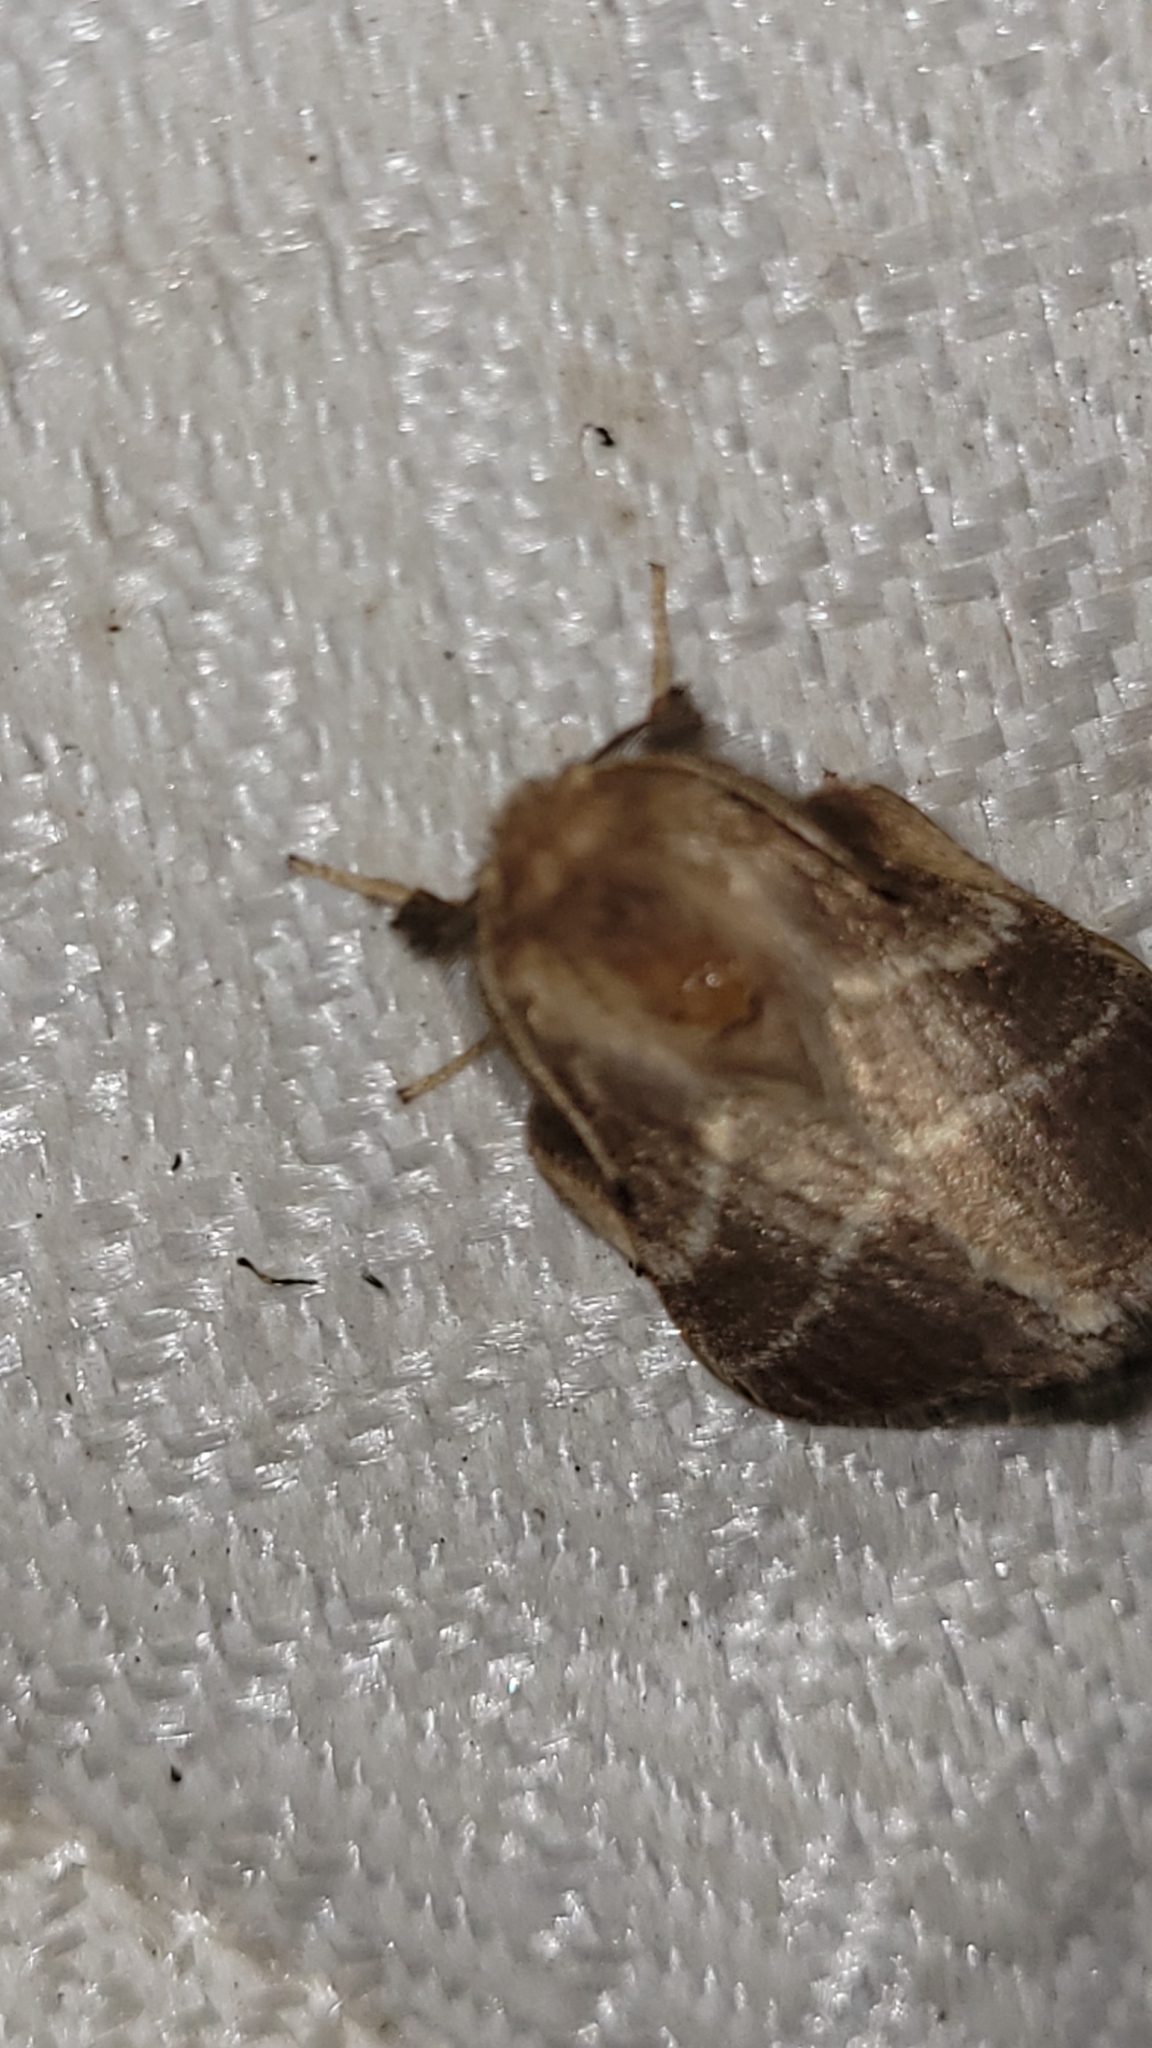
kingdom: Animalia
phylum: Arthropoda
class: Insecta
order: Lepidoptera
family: Lasiocampidae
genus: Malacosoma
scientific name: Malacosoma americana
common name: Eastern tent caterpillar moth
